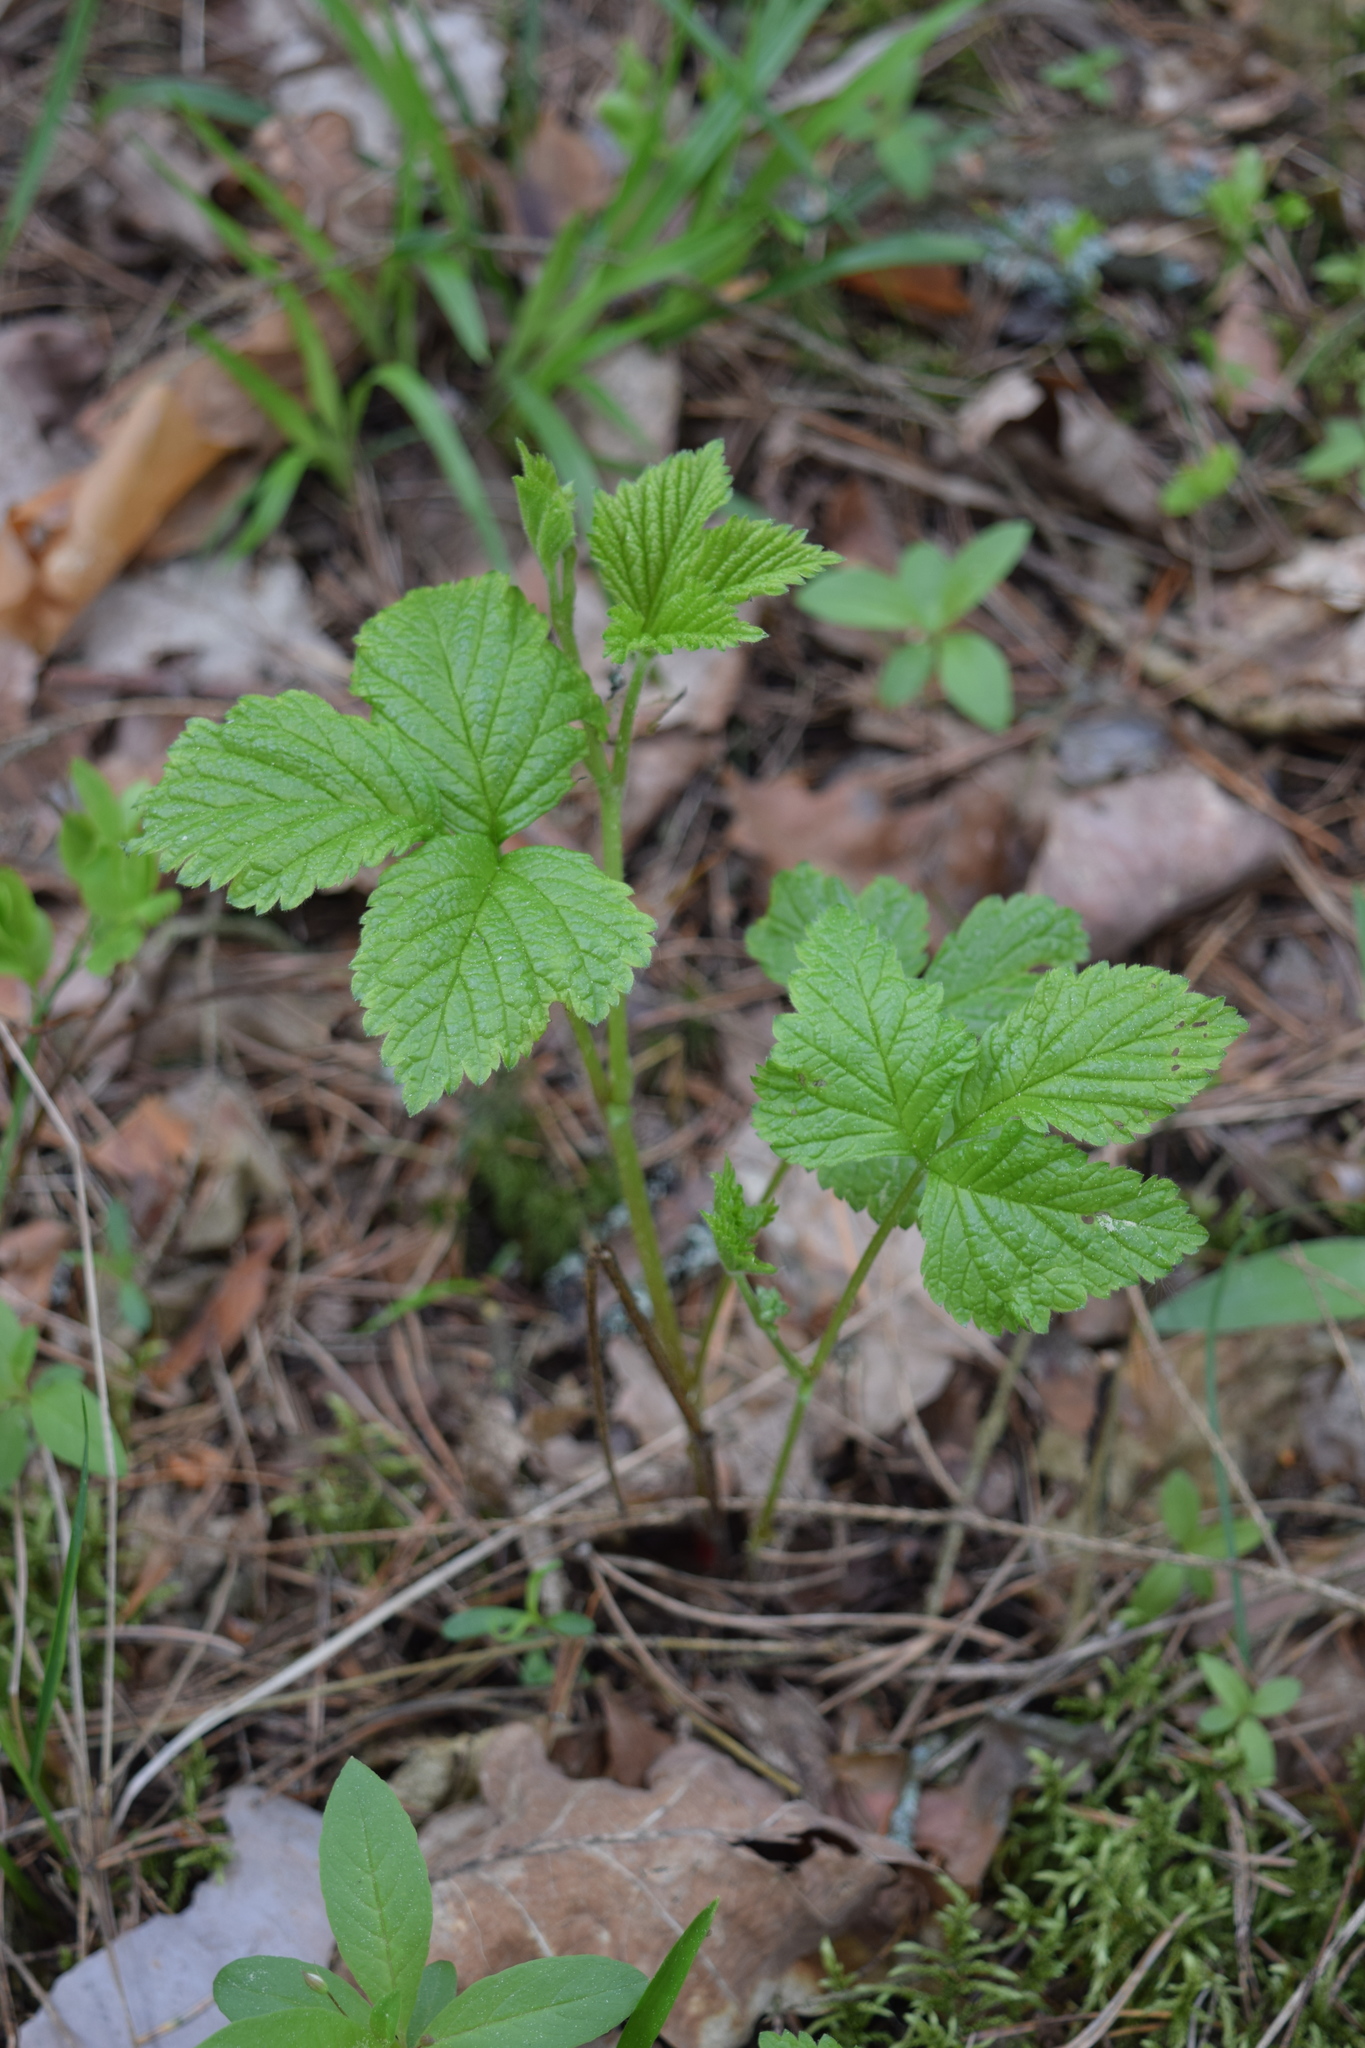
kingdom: Plantae
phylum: Tracheophyta
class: Magnoliopsida
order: Rosales
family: Rosaceae
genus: Rubus
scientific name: Rubus saxatilis
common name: Stone bramble
